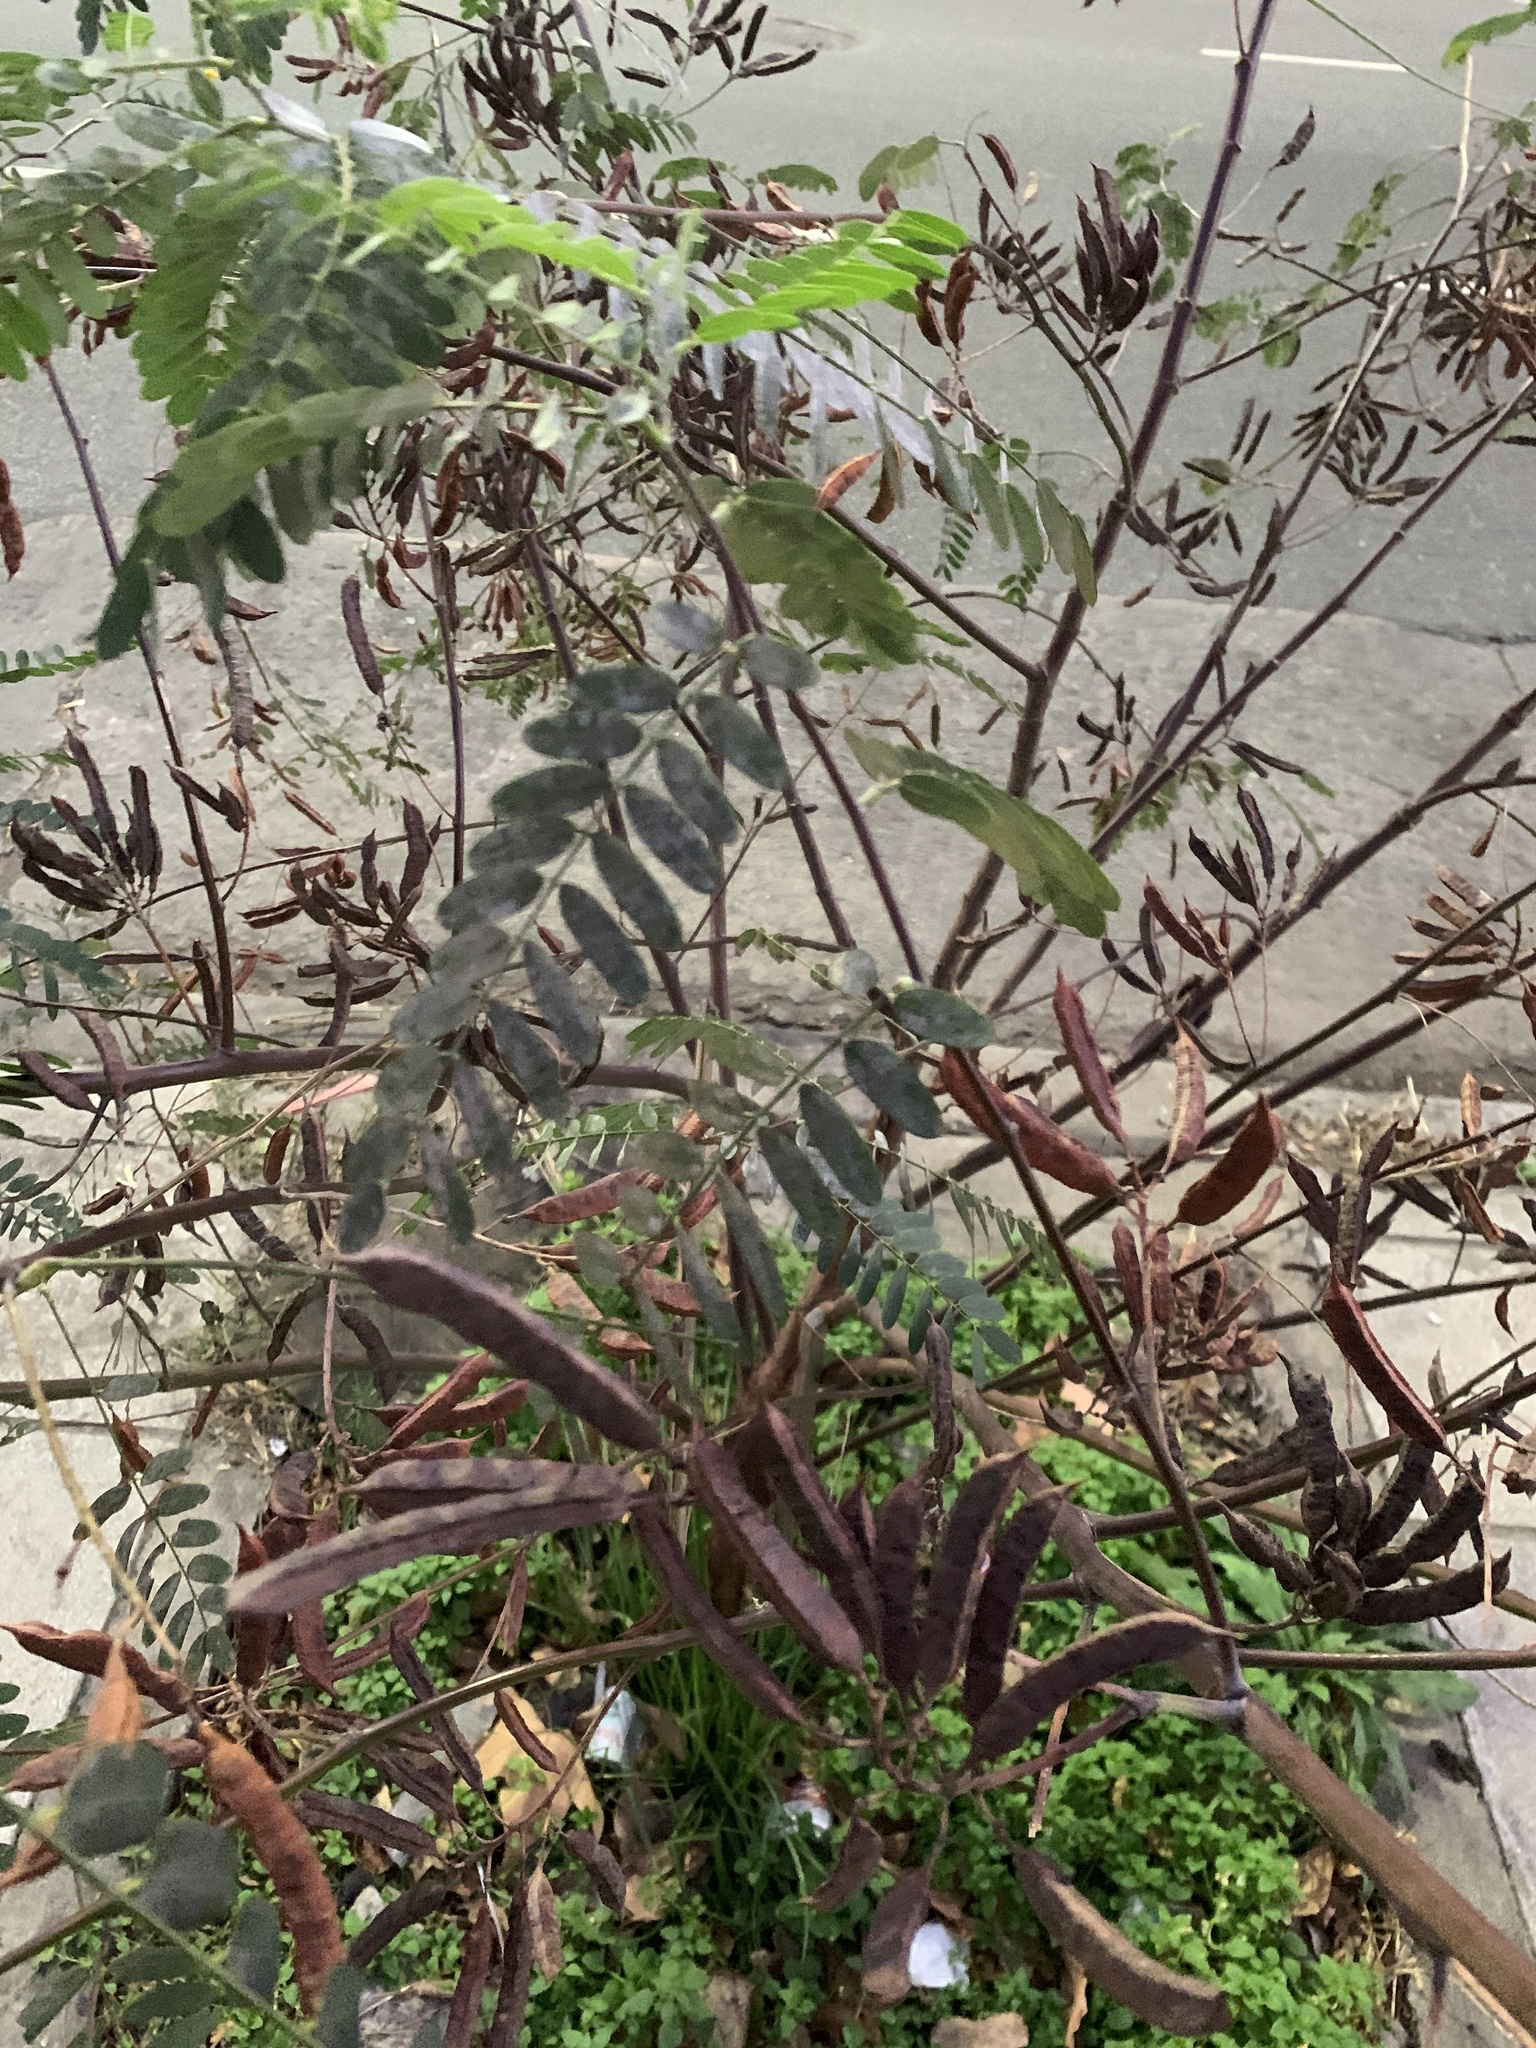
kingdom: Plantae
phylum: Tracheophyta
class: Magnoliopsida
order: Fabales
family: Fabaceae
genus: Sesbania
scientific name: Sesbania virgata
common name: Wand riverhemp
